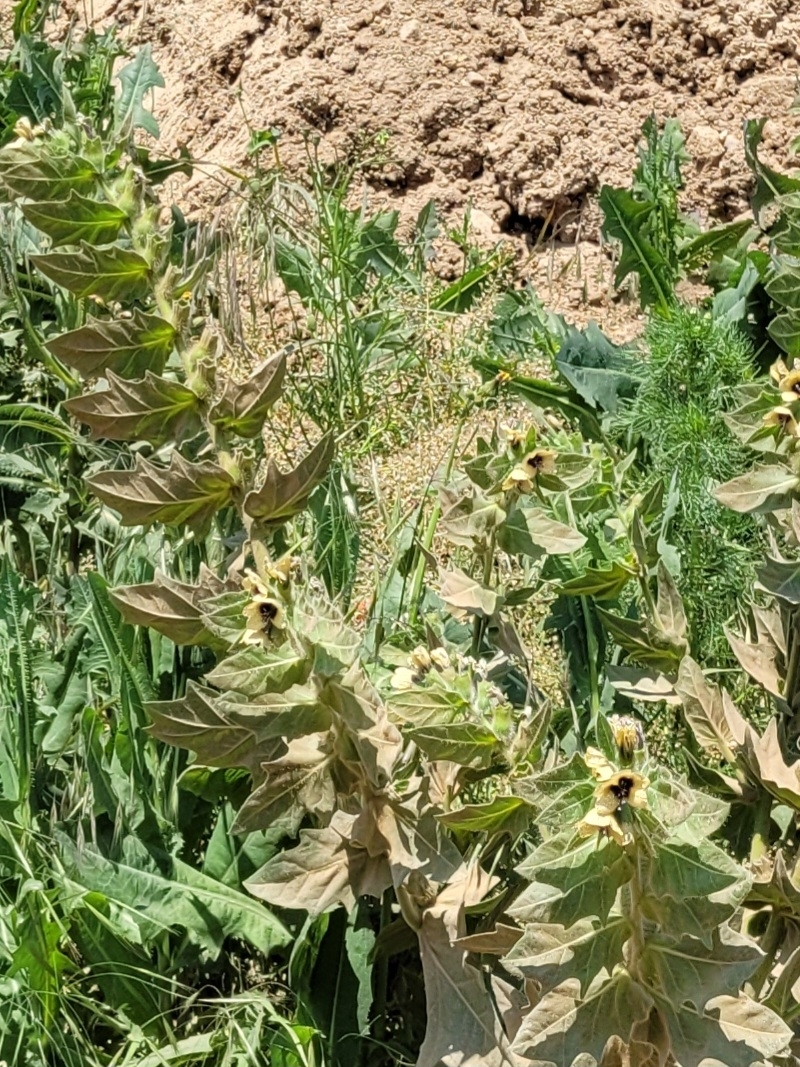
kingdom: Plantae
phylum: Tracheophyta
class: Magnoliopsida
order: Solanales
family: Solanaceae
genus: Hyoscyamus
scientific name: Hyoscyamus niger
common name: Henbane
